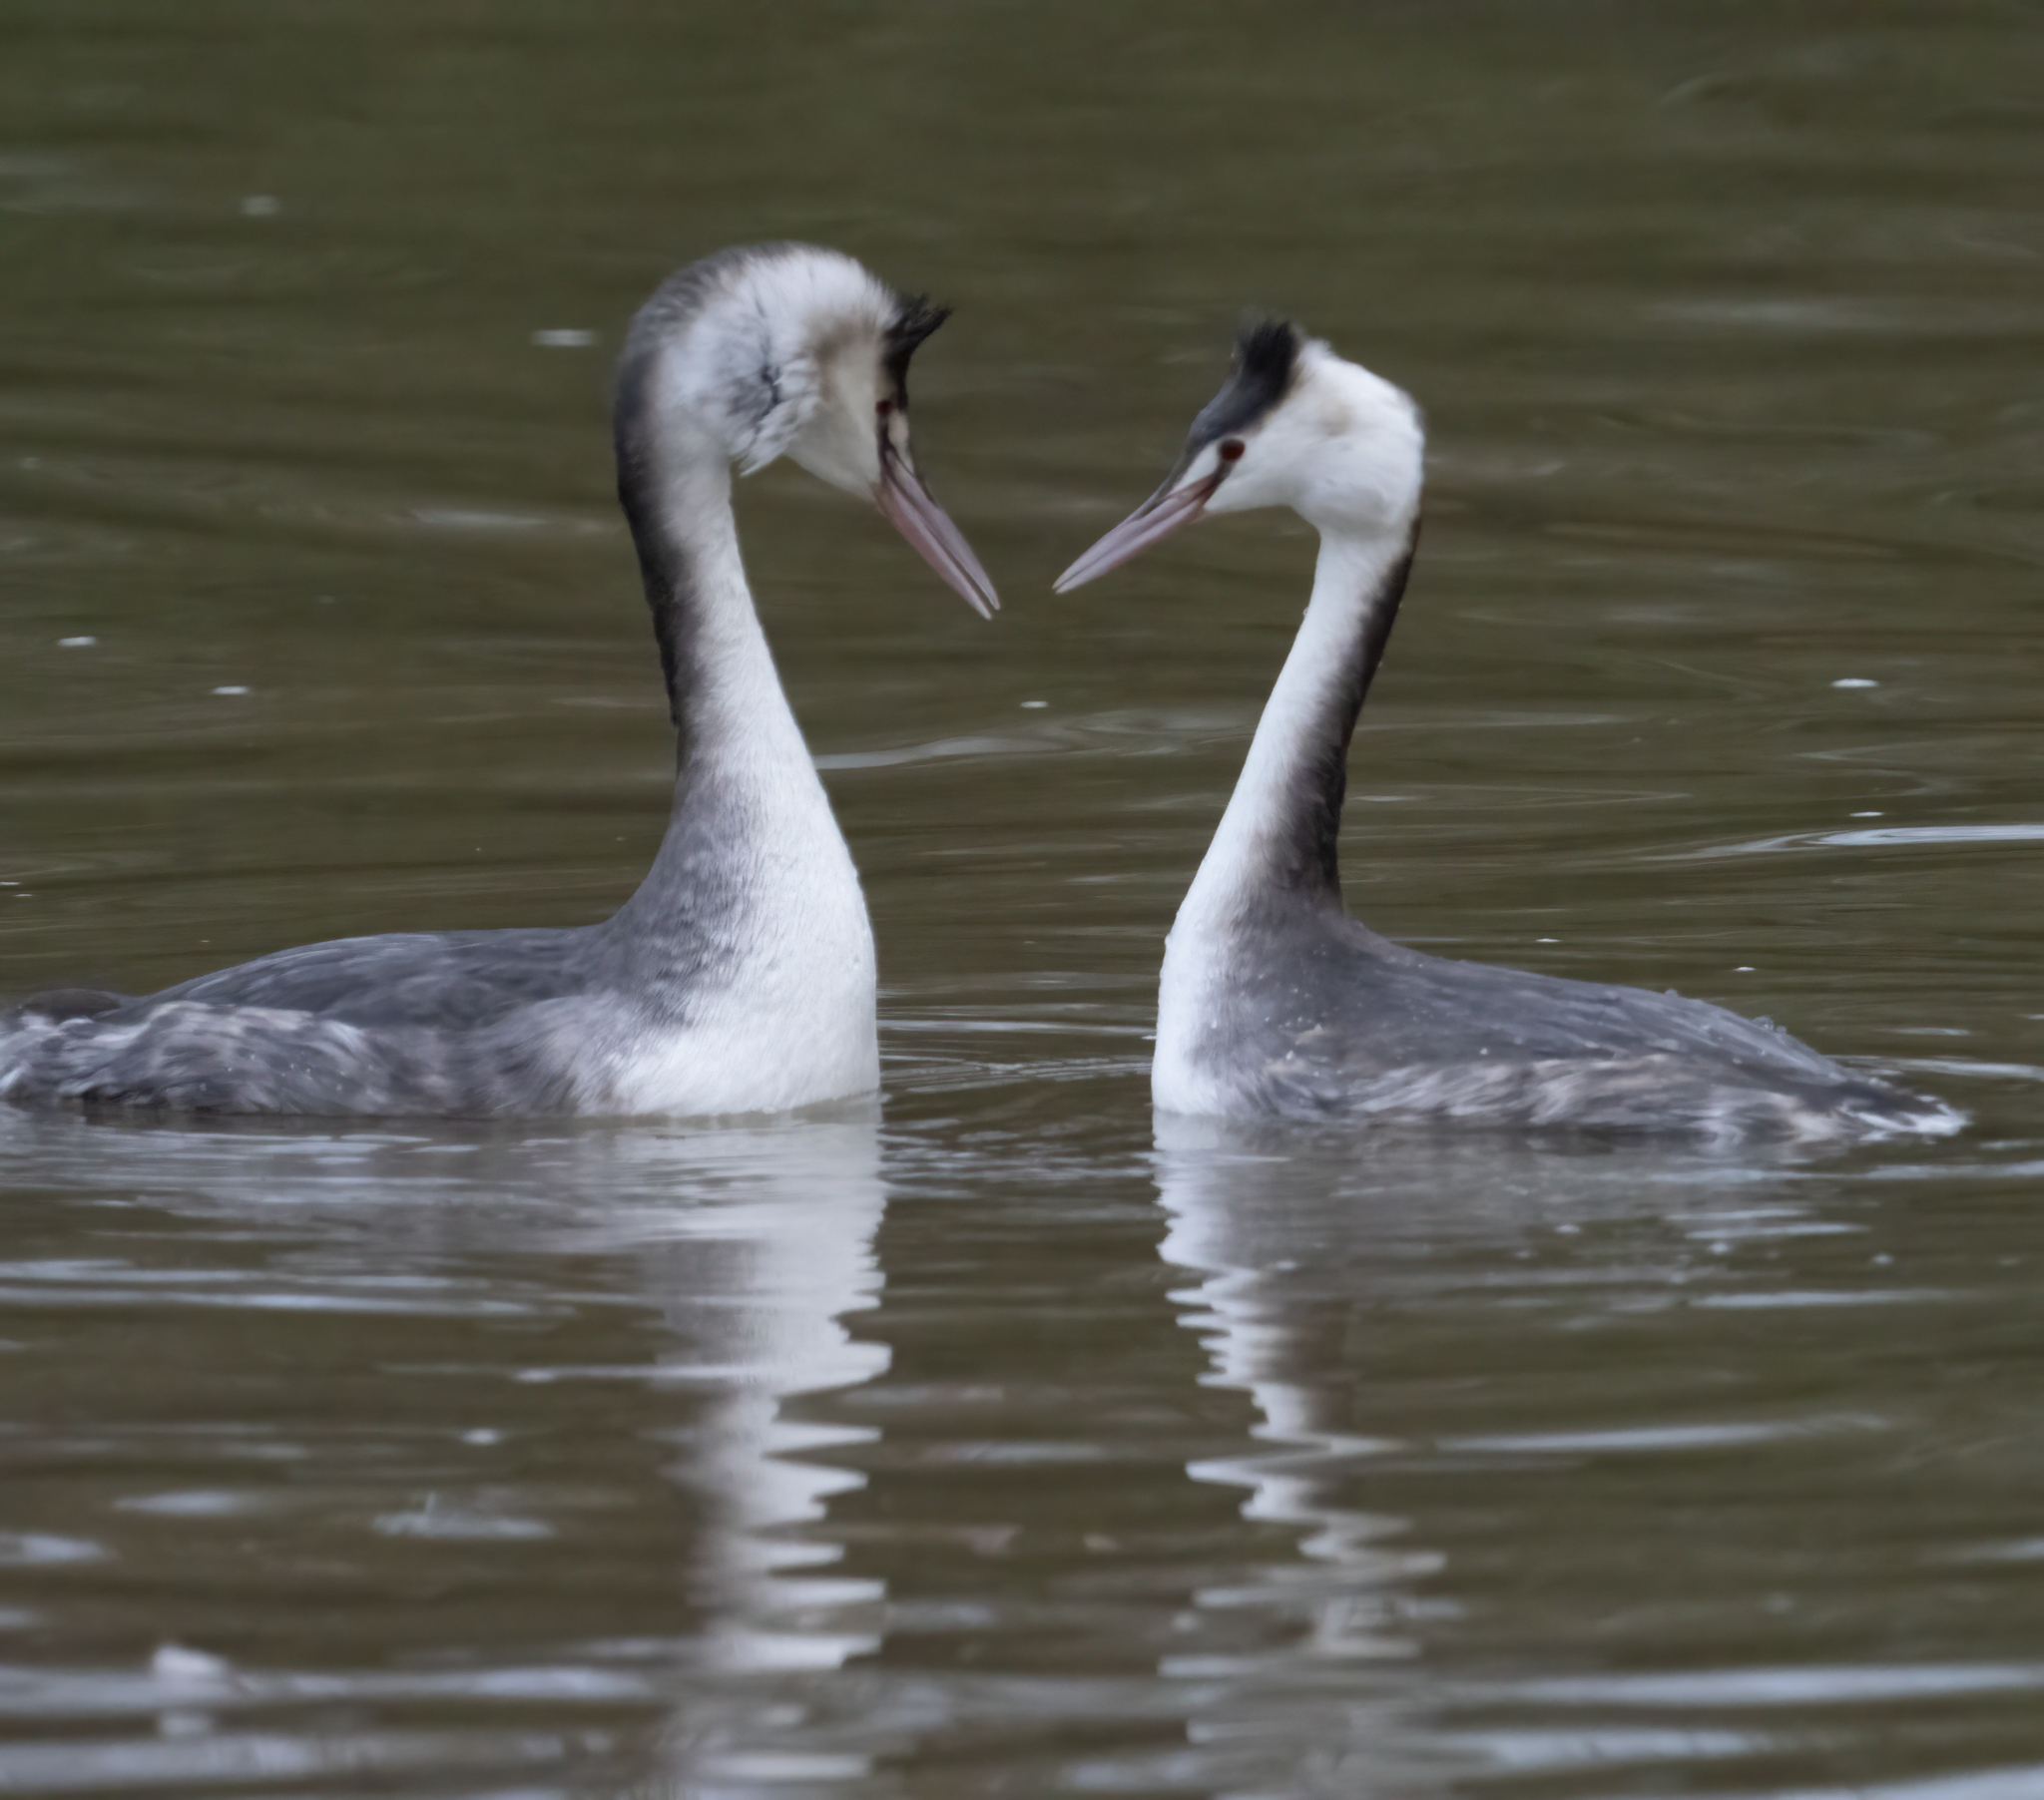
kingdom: Animalia
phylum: Chordata
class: Aves
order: Podicipediformes
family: Podicipedidae
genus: Podiceps
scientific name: Podiceps cristatus
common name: Great crested grebe
